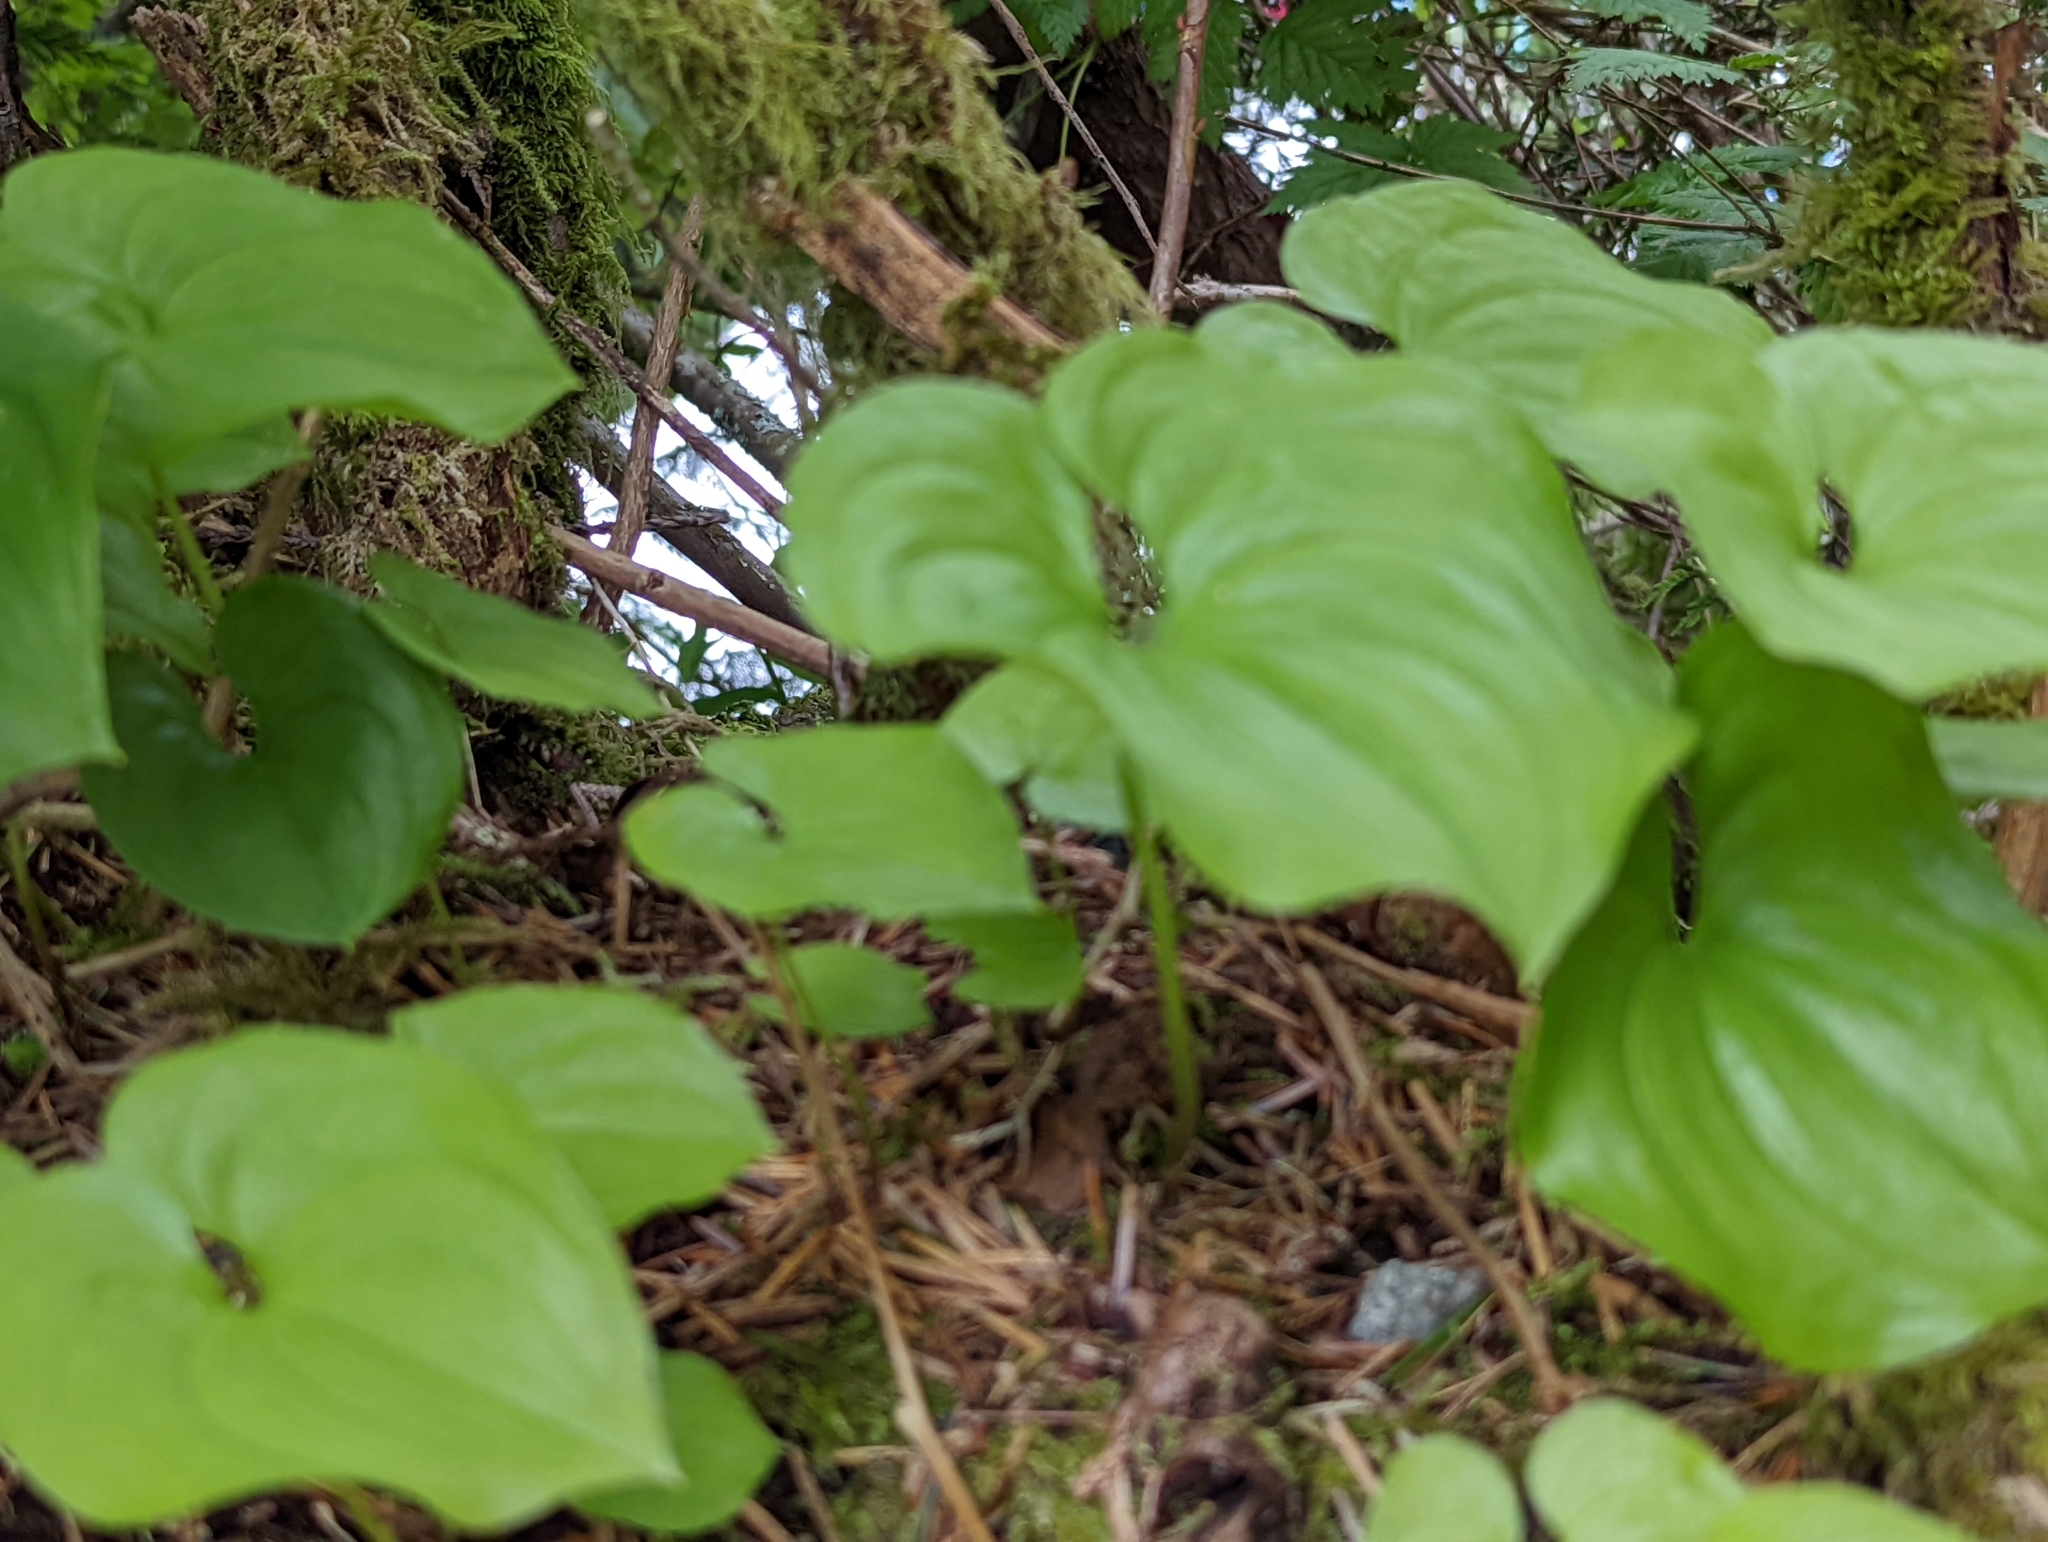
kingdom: Plantae
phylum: Tracheophyta
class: Liliopsida
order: Asparagales
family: Asparagaceae
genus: Maianthemum
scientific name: Maianthemum dilatatum
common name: False lily-of-the-valley
